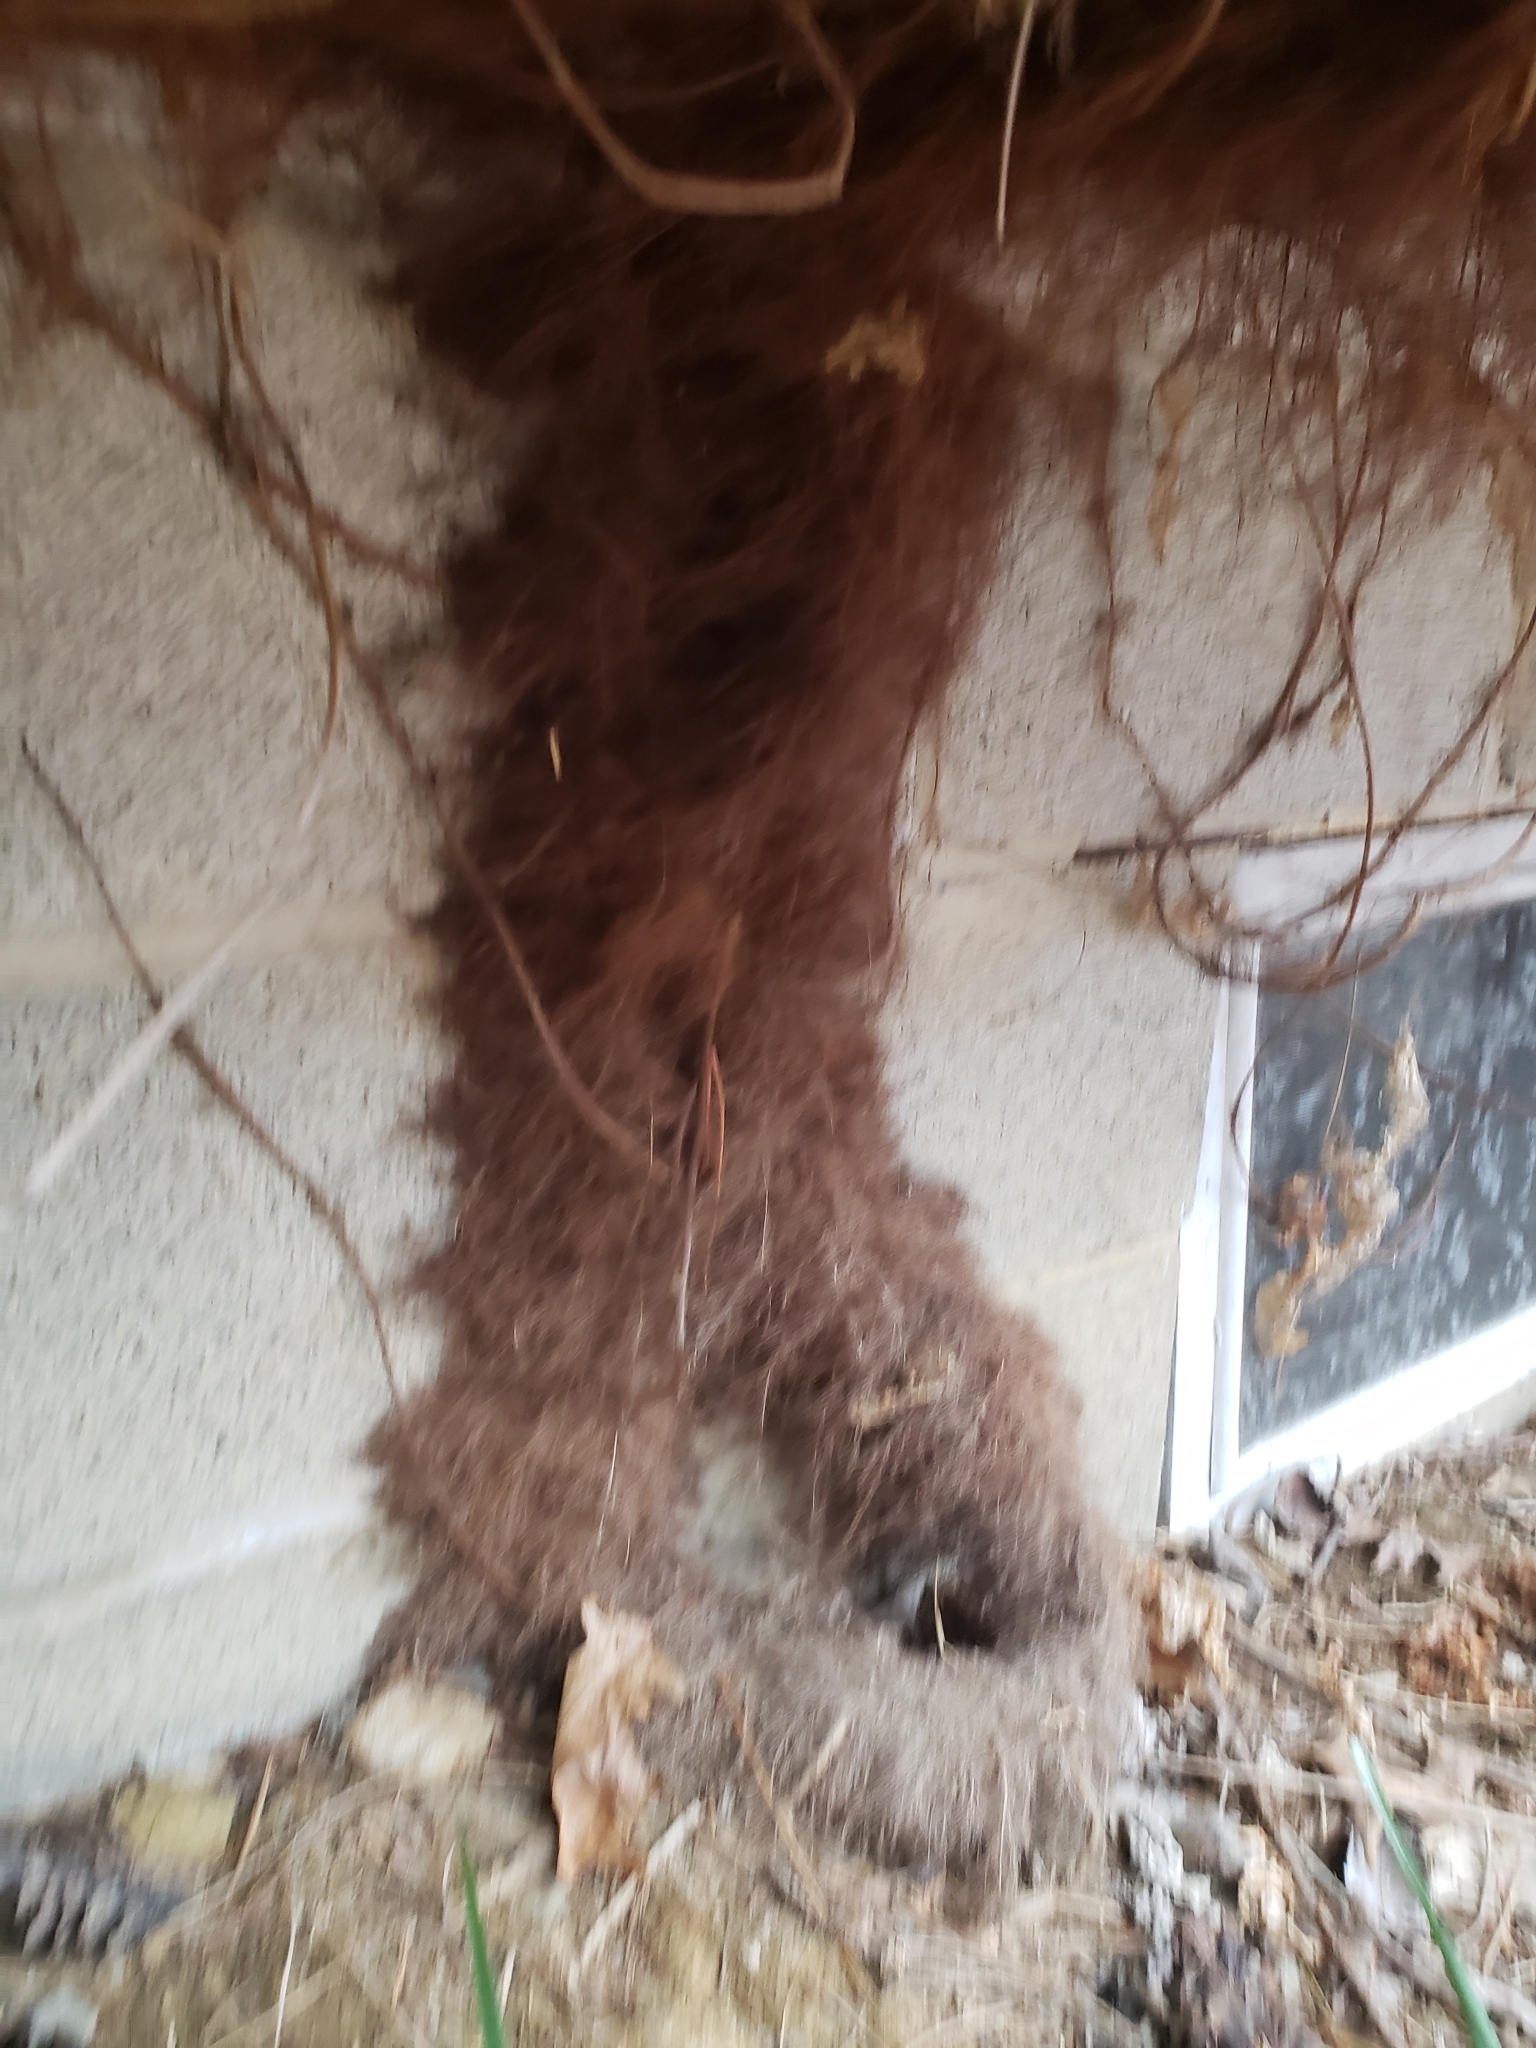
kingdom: Plantae
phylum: Tracheophyta
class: Magnoliopsida
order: Sapindales
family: Anacardiaceae
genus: Toxicodendron
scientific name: Toxicodendron radicans
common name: Poison ivy
